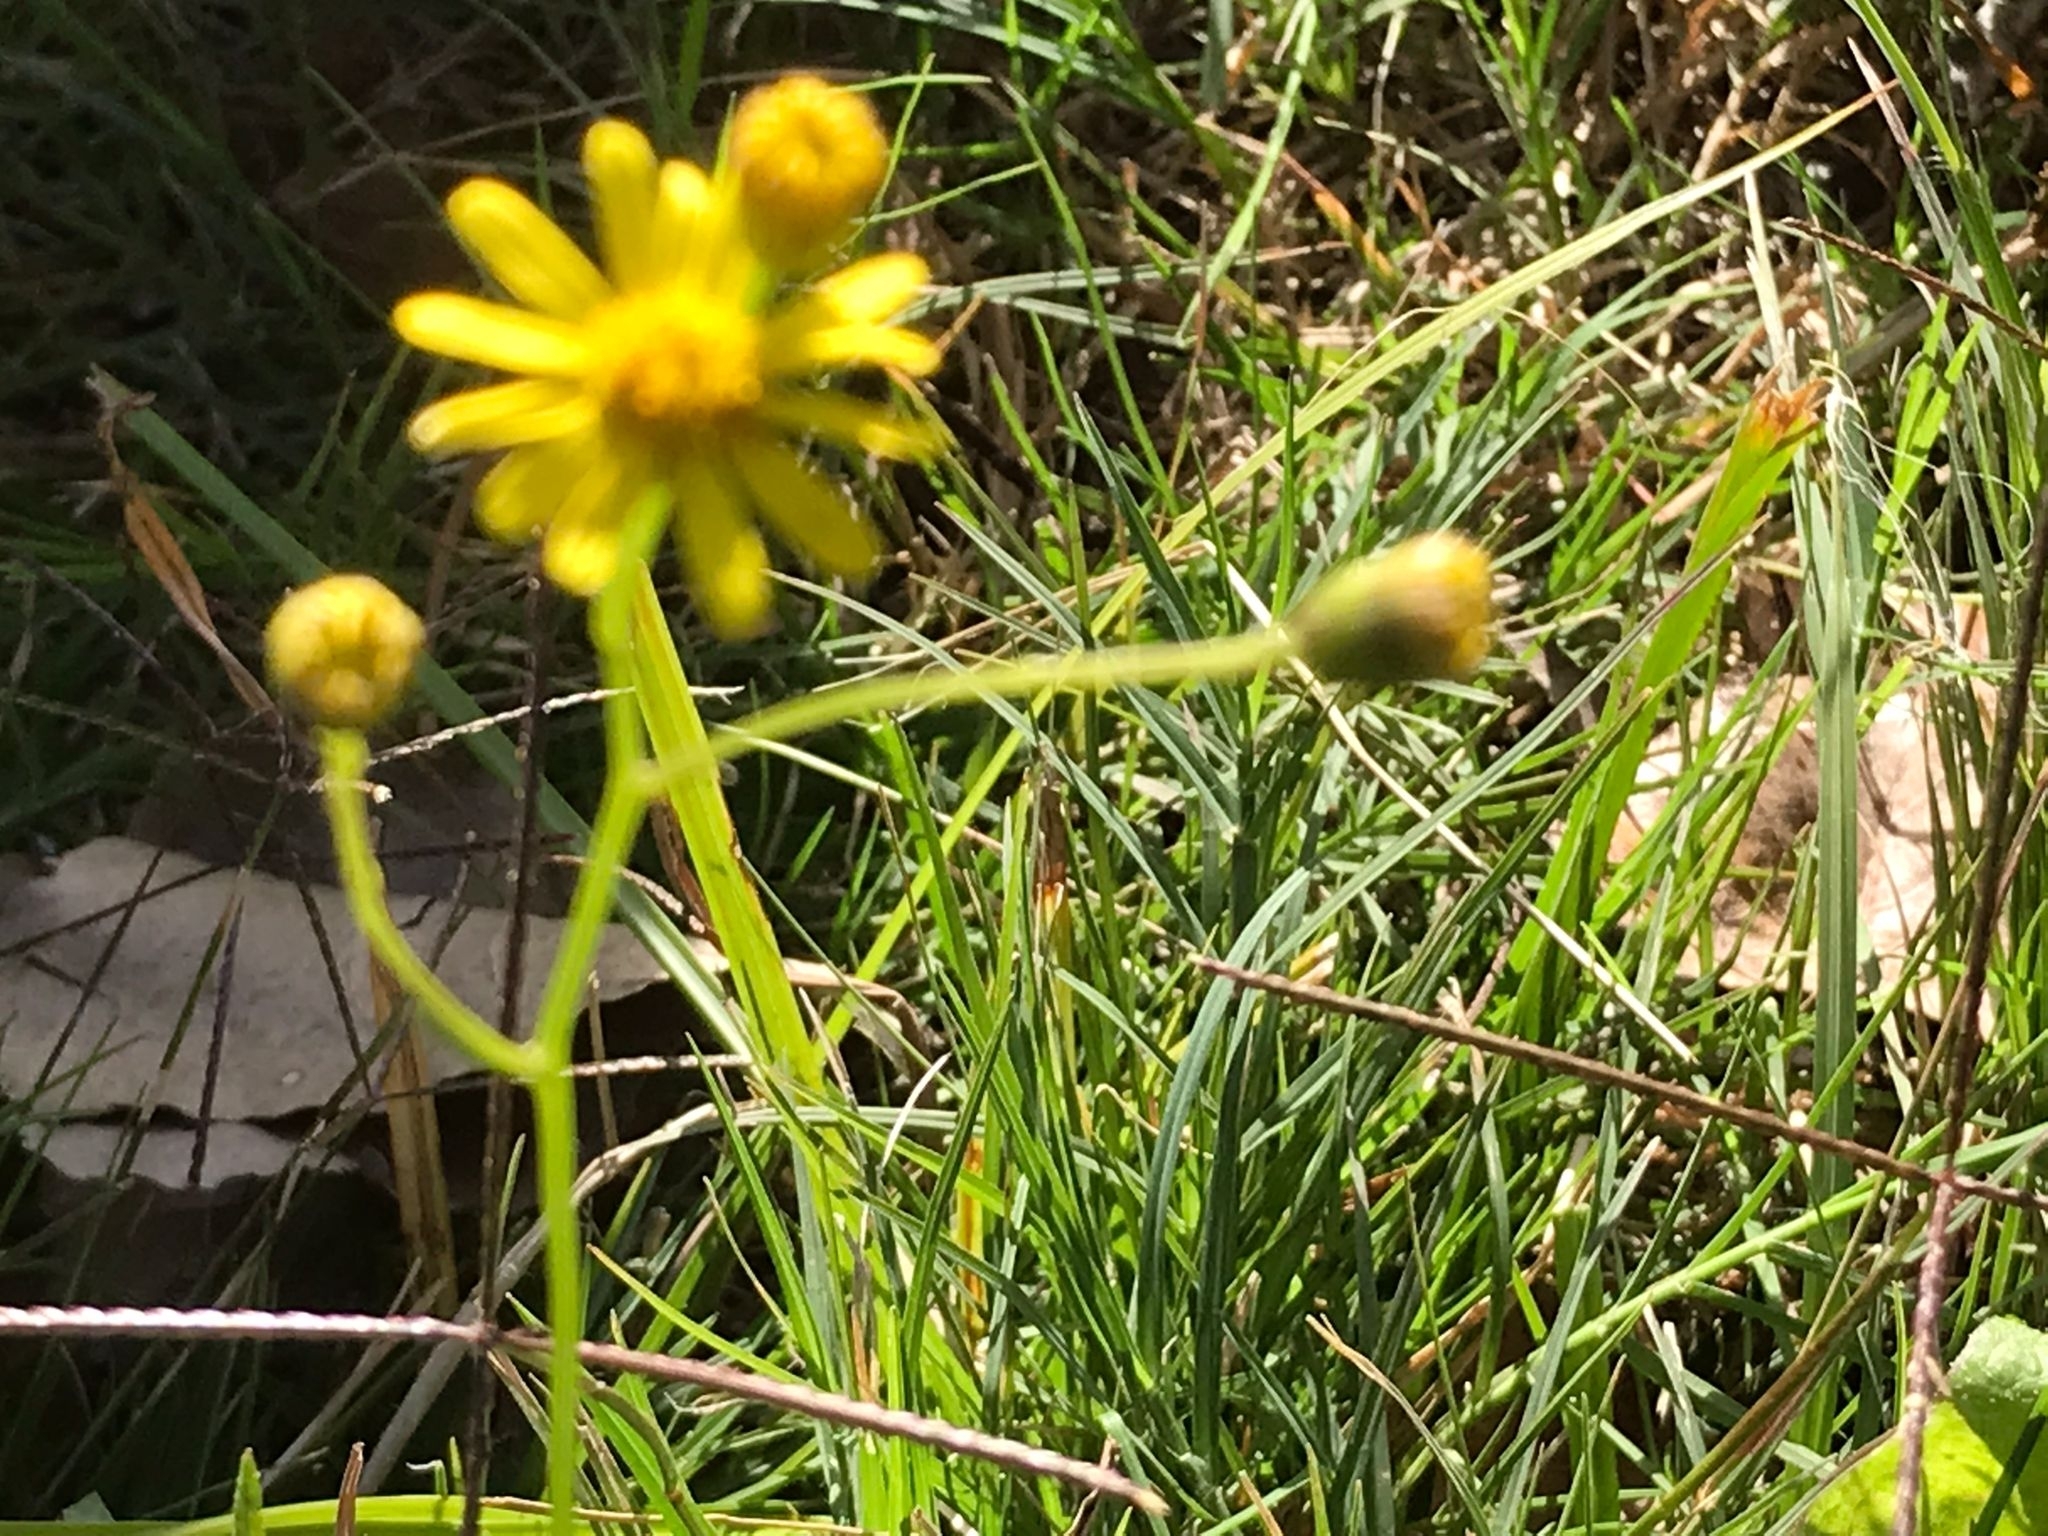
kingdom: Plantae
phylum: Tracheophyta
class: Magnoliopsida
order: Asterales
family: Asteraceae
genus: Senecio
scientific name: Senecio madagascariensis
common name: Madagascar ragwort
